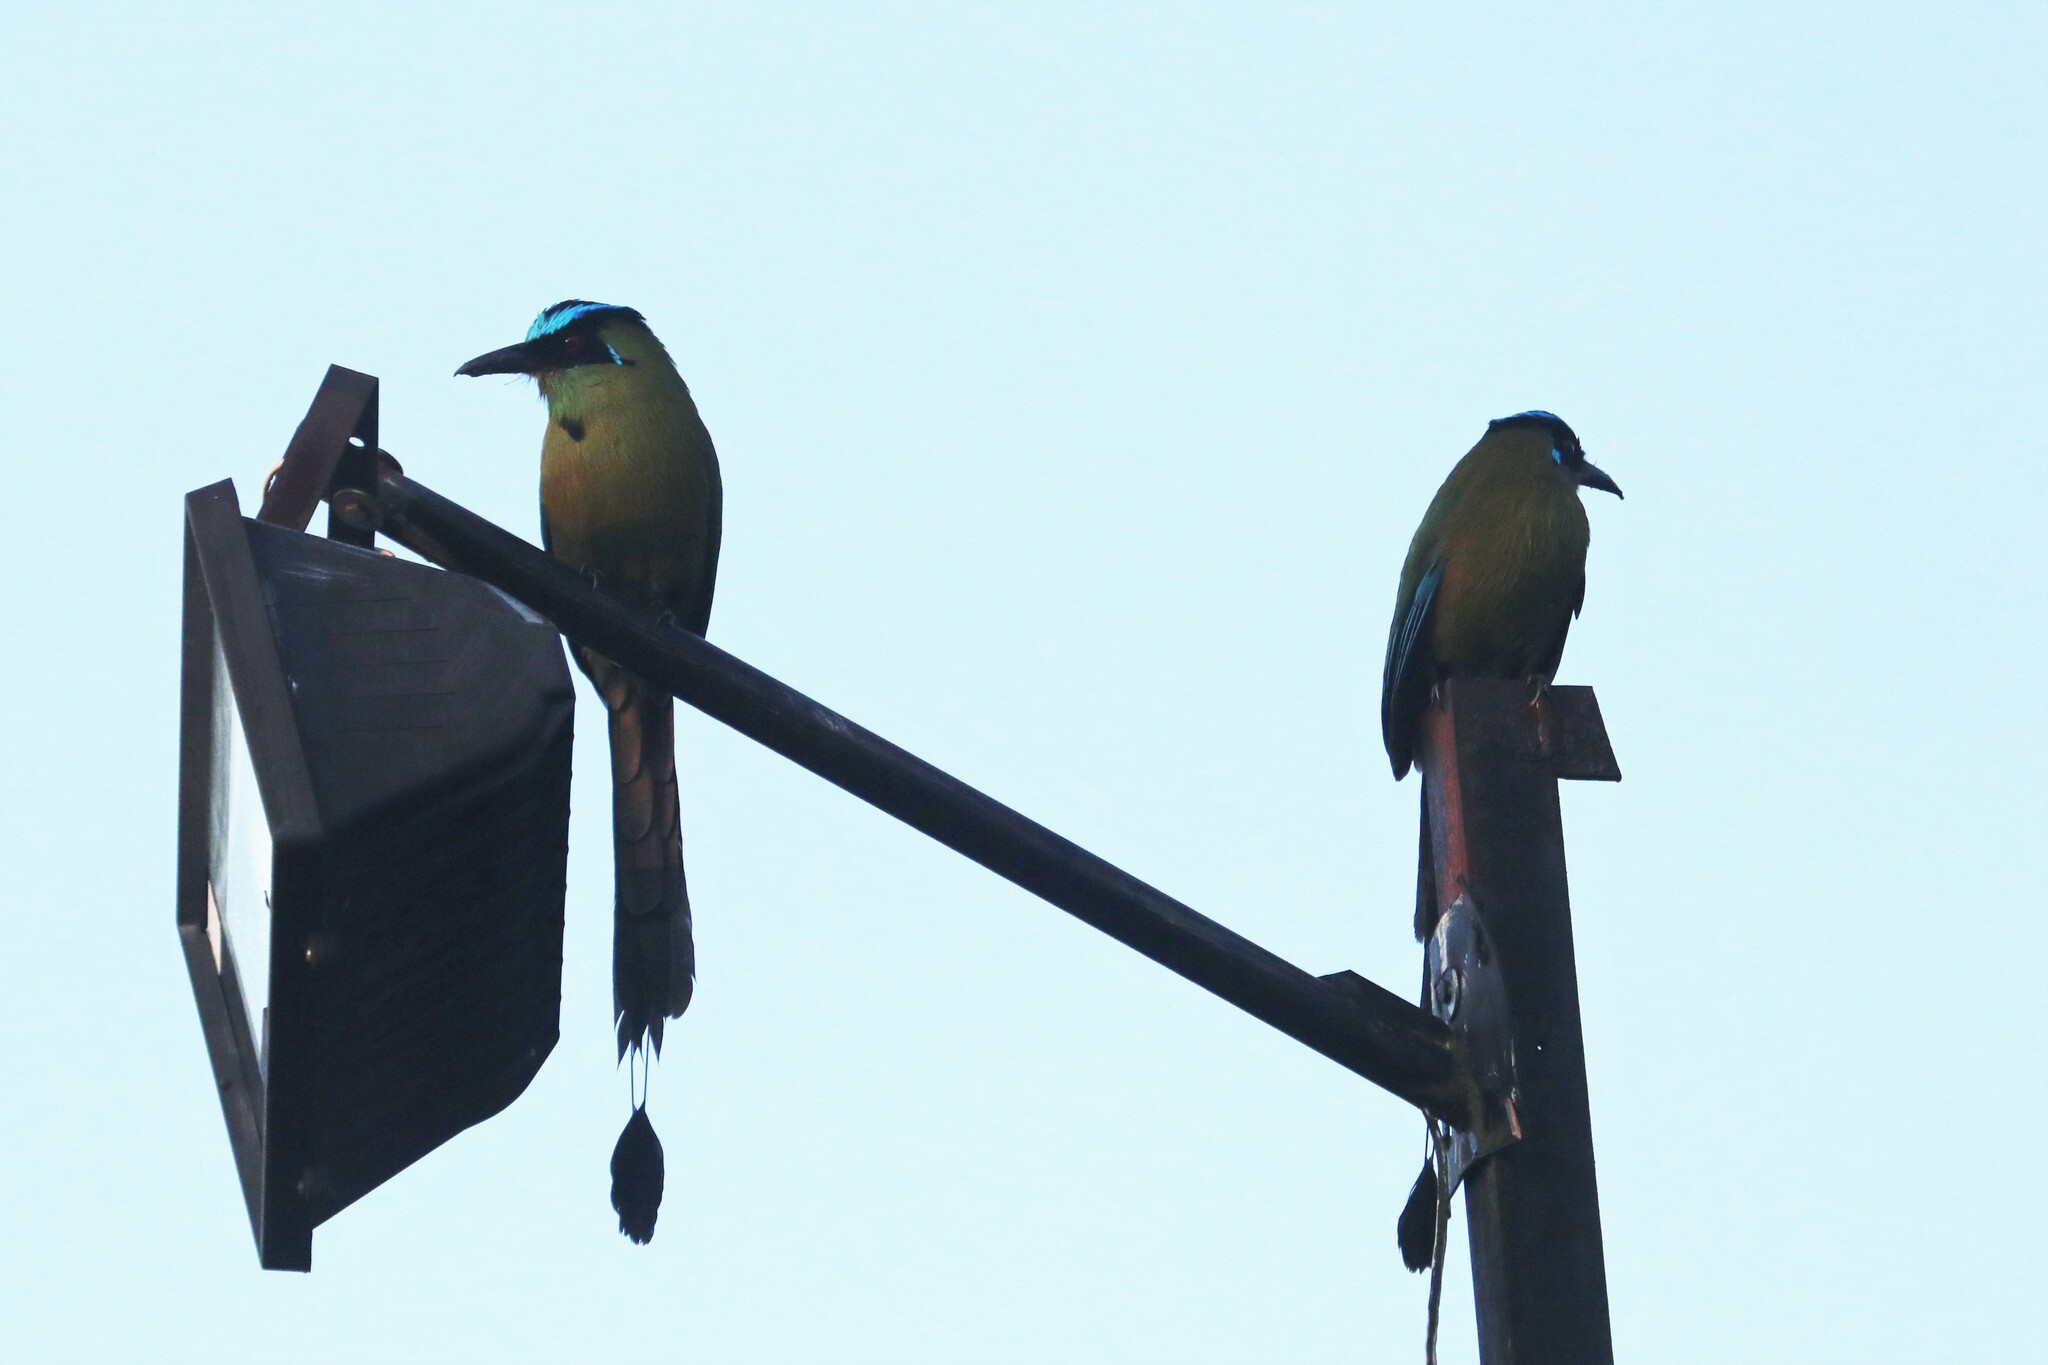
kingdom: Animalia
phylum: Chordata
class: Aves
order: Coraciiformes
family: Momotidae
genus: Momotus
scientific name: Momotus aequatorialis
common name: Andean motmot
